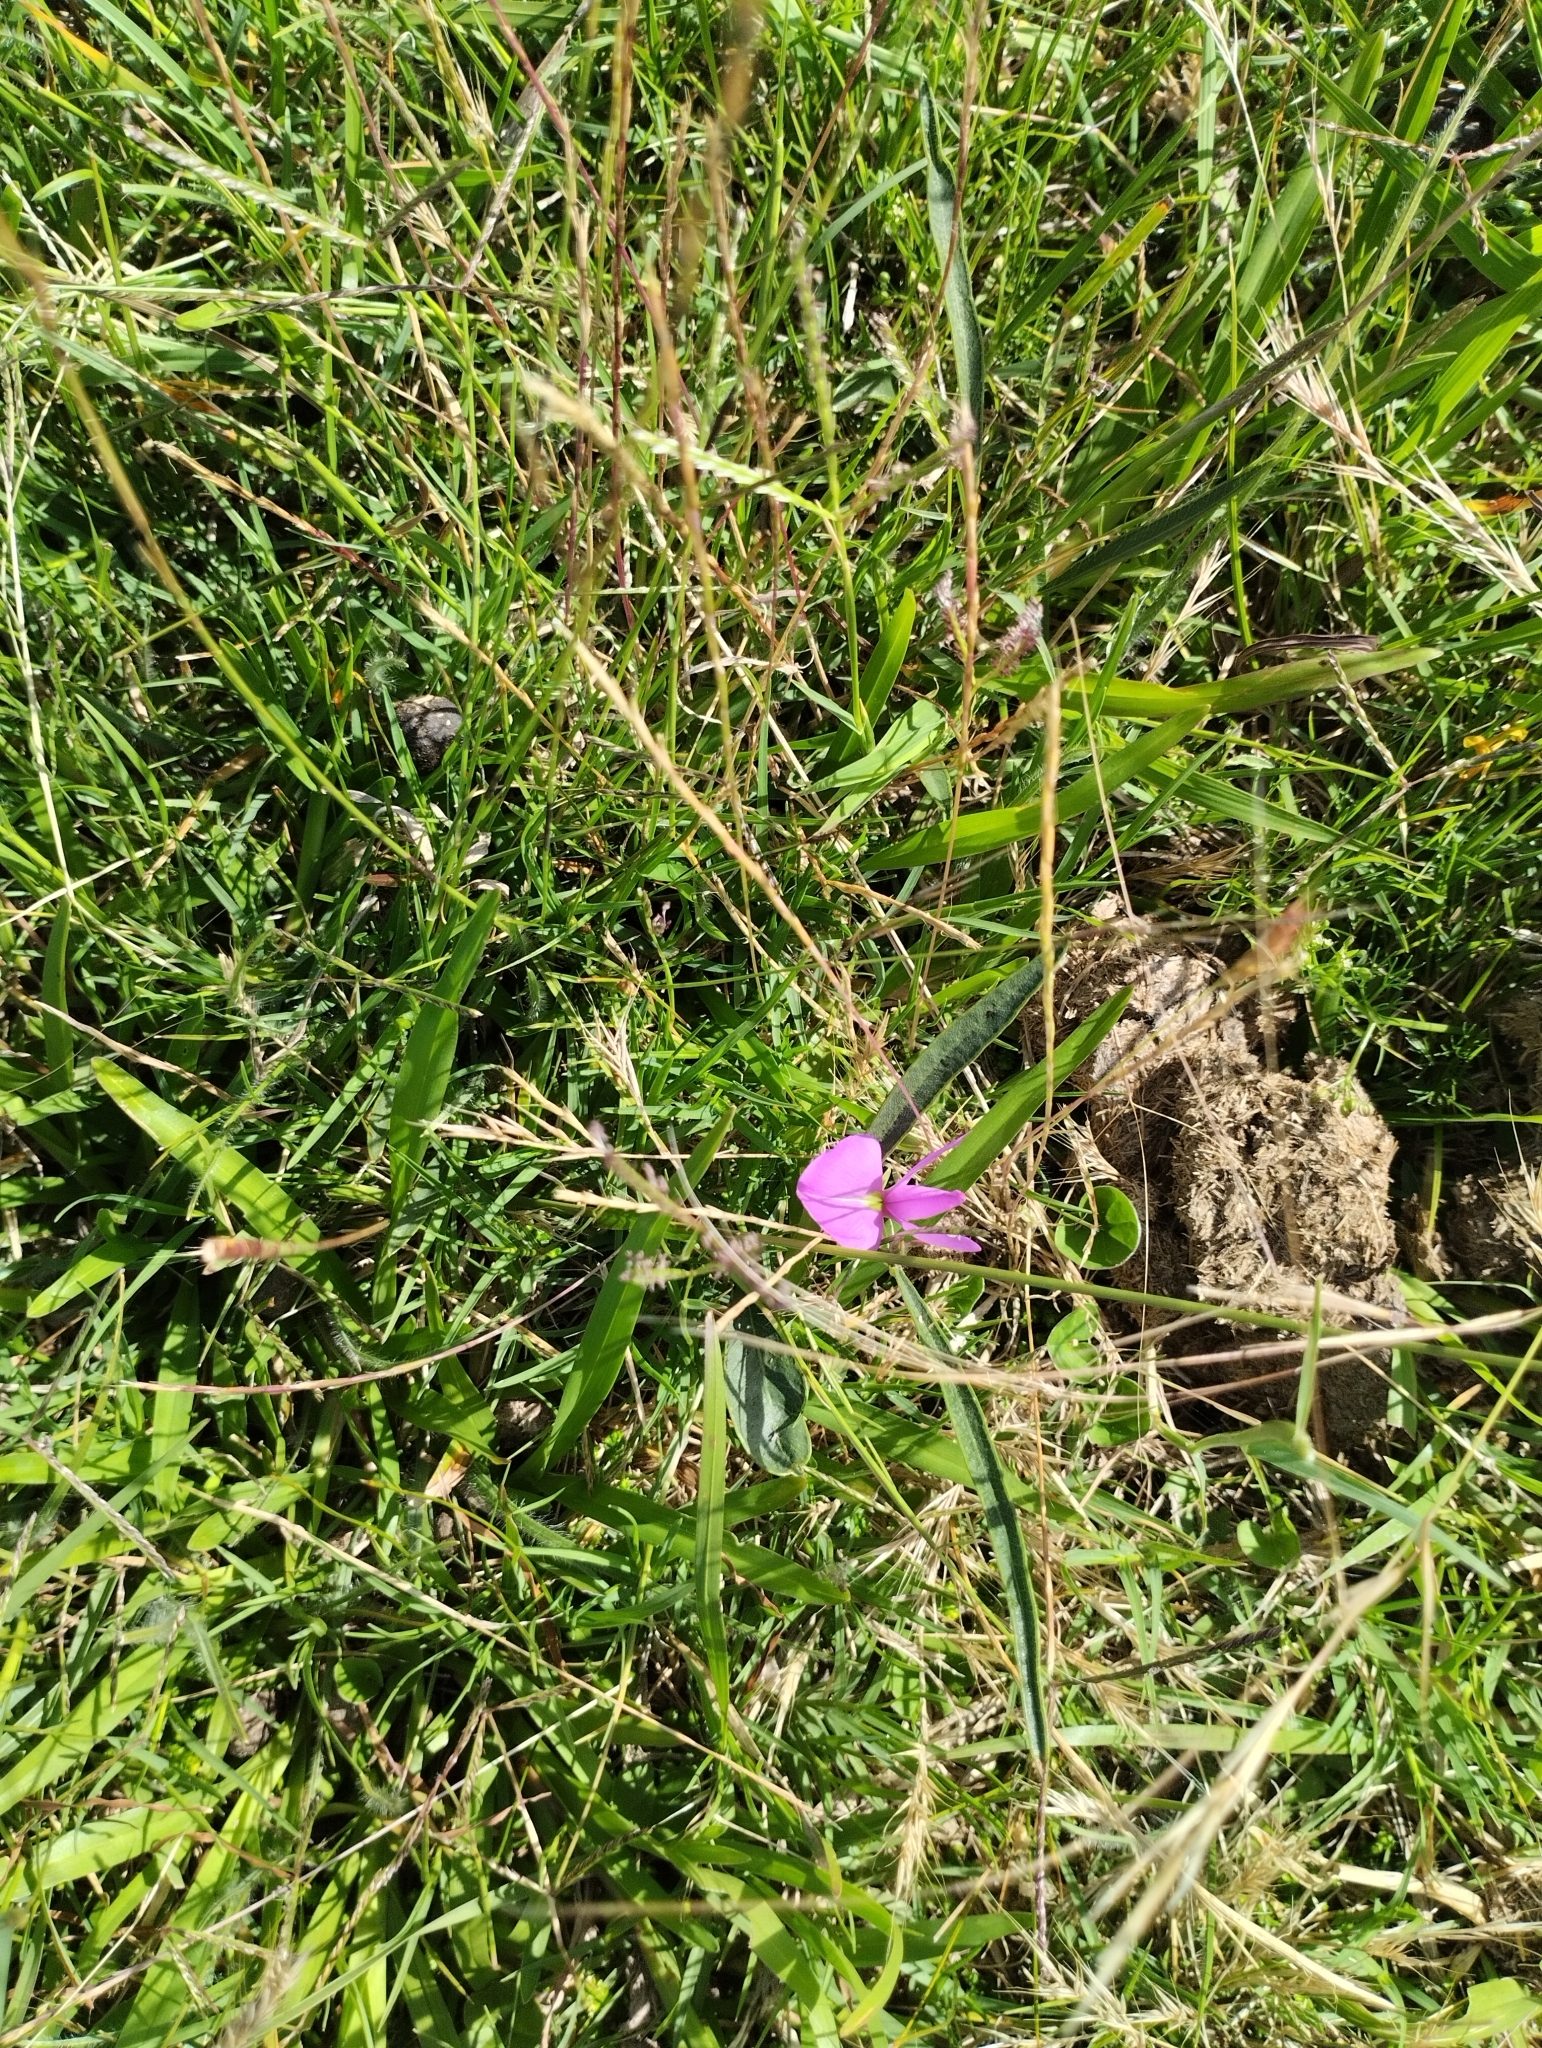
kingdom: Plantae
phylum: Tracheophyta
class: Magnoliopsida
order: Fabales
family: Fabaceae
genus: Nanogalactia
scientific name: Nanogalactia heterophylla
